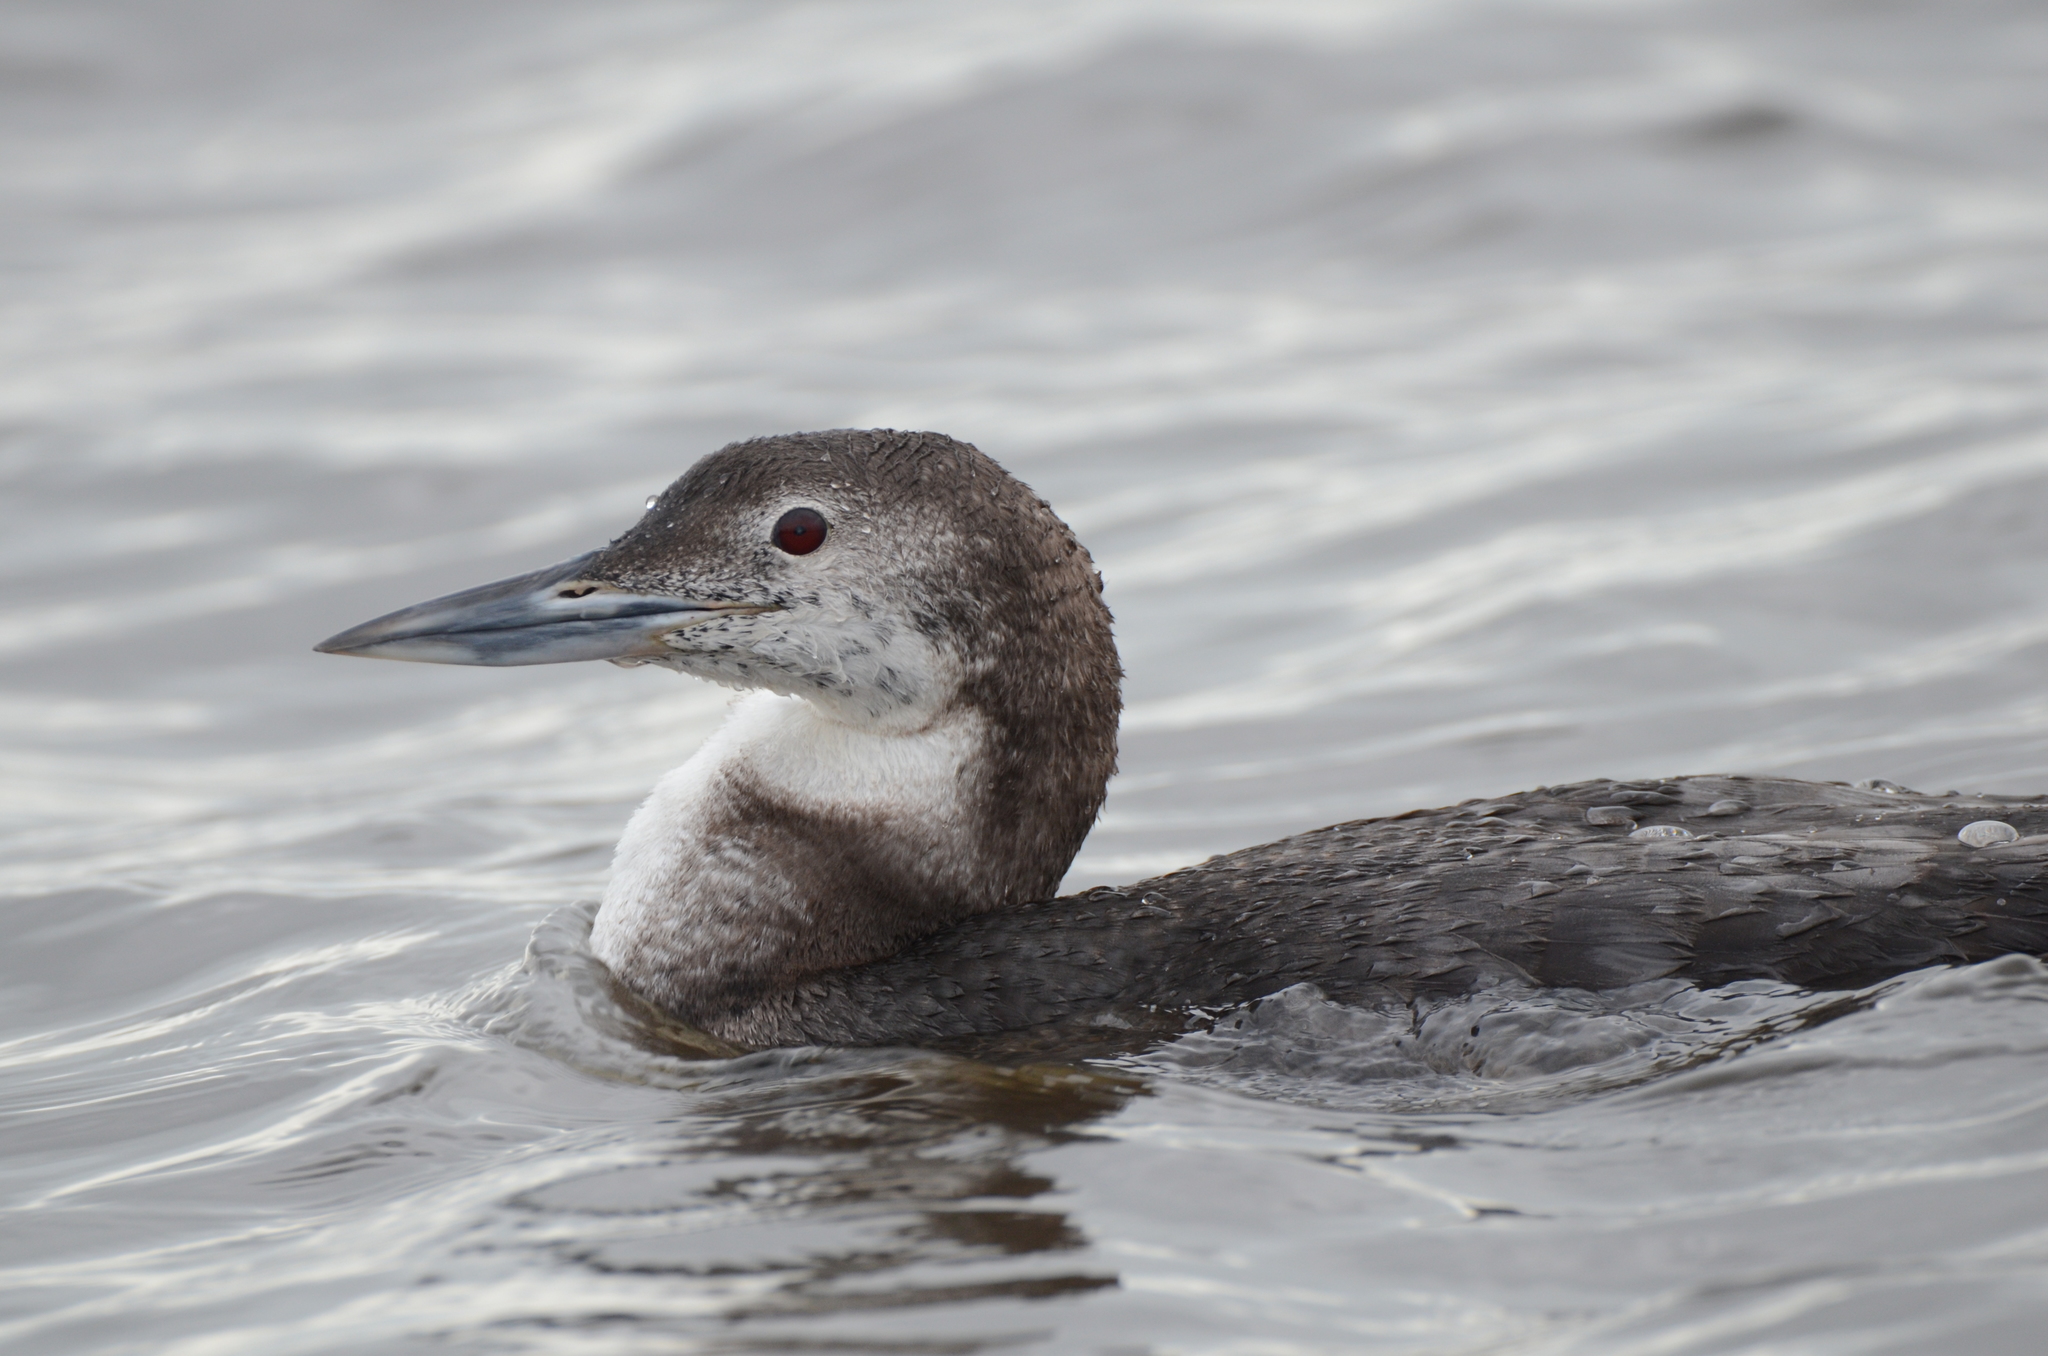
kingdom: Animalia
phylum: Chordata
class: Aves
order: Gaviiformes
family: Gaviidae
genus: Gavia
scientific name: Gavia immer
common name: Common loon
